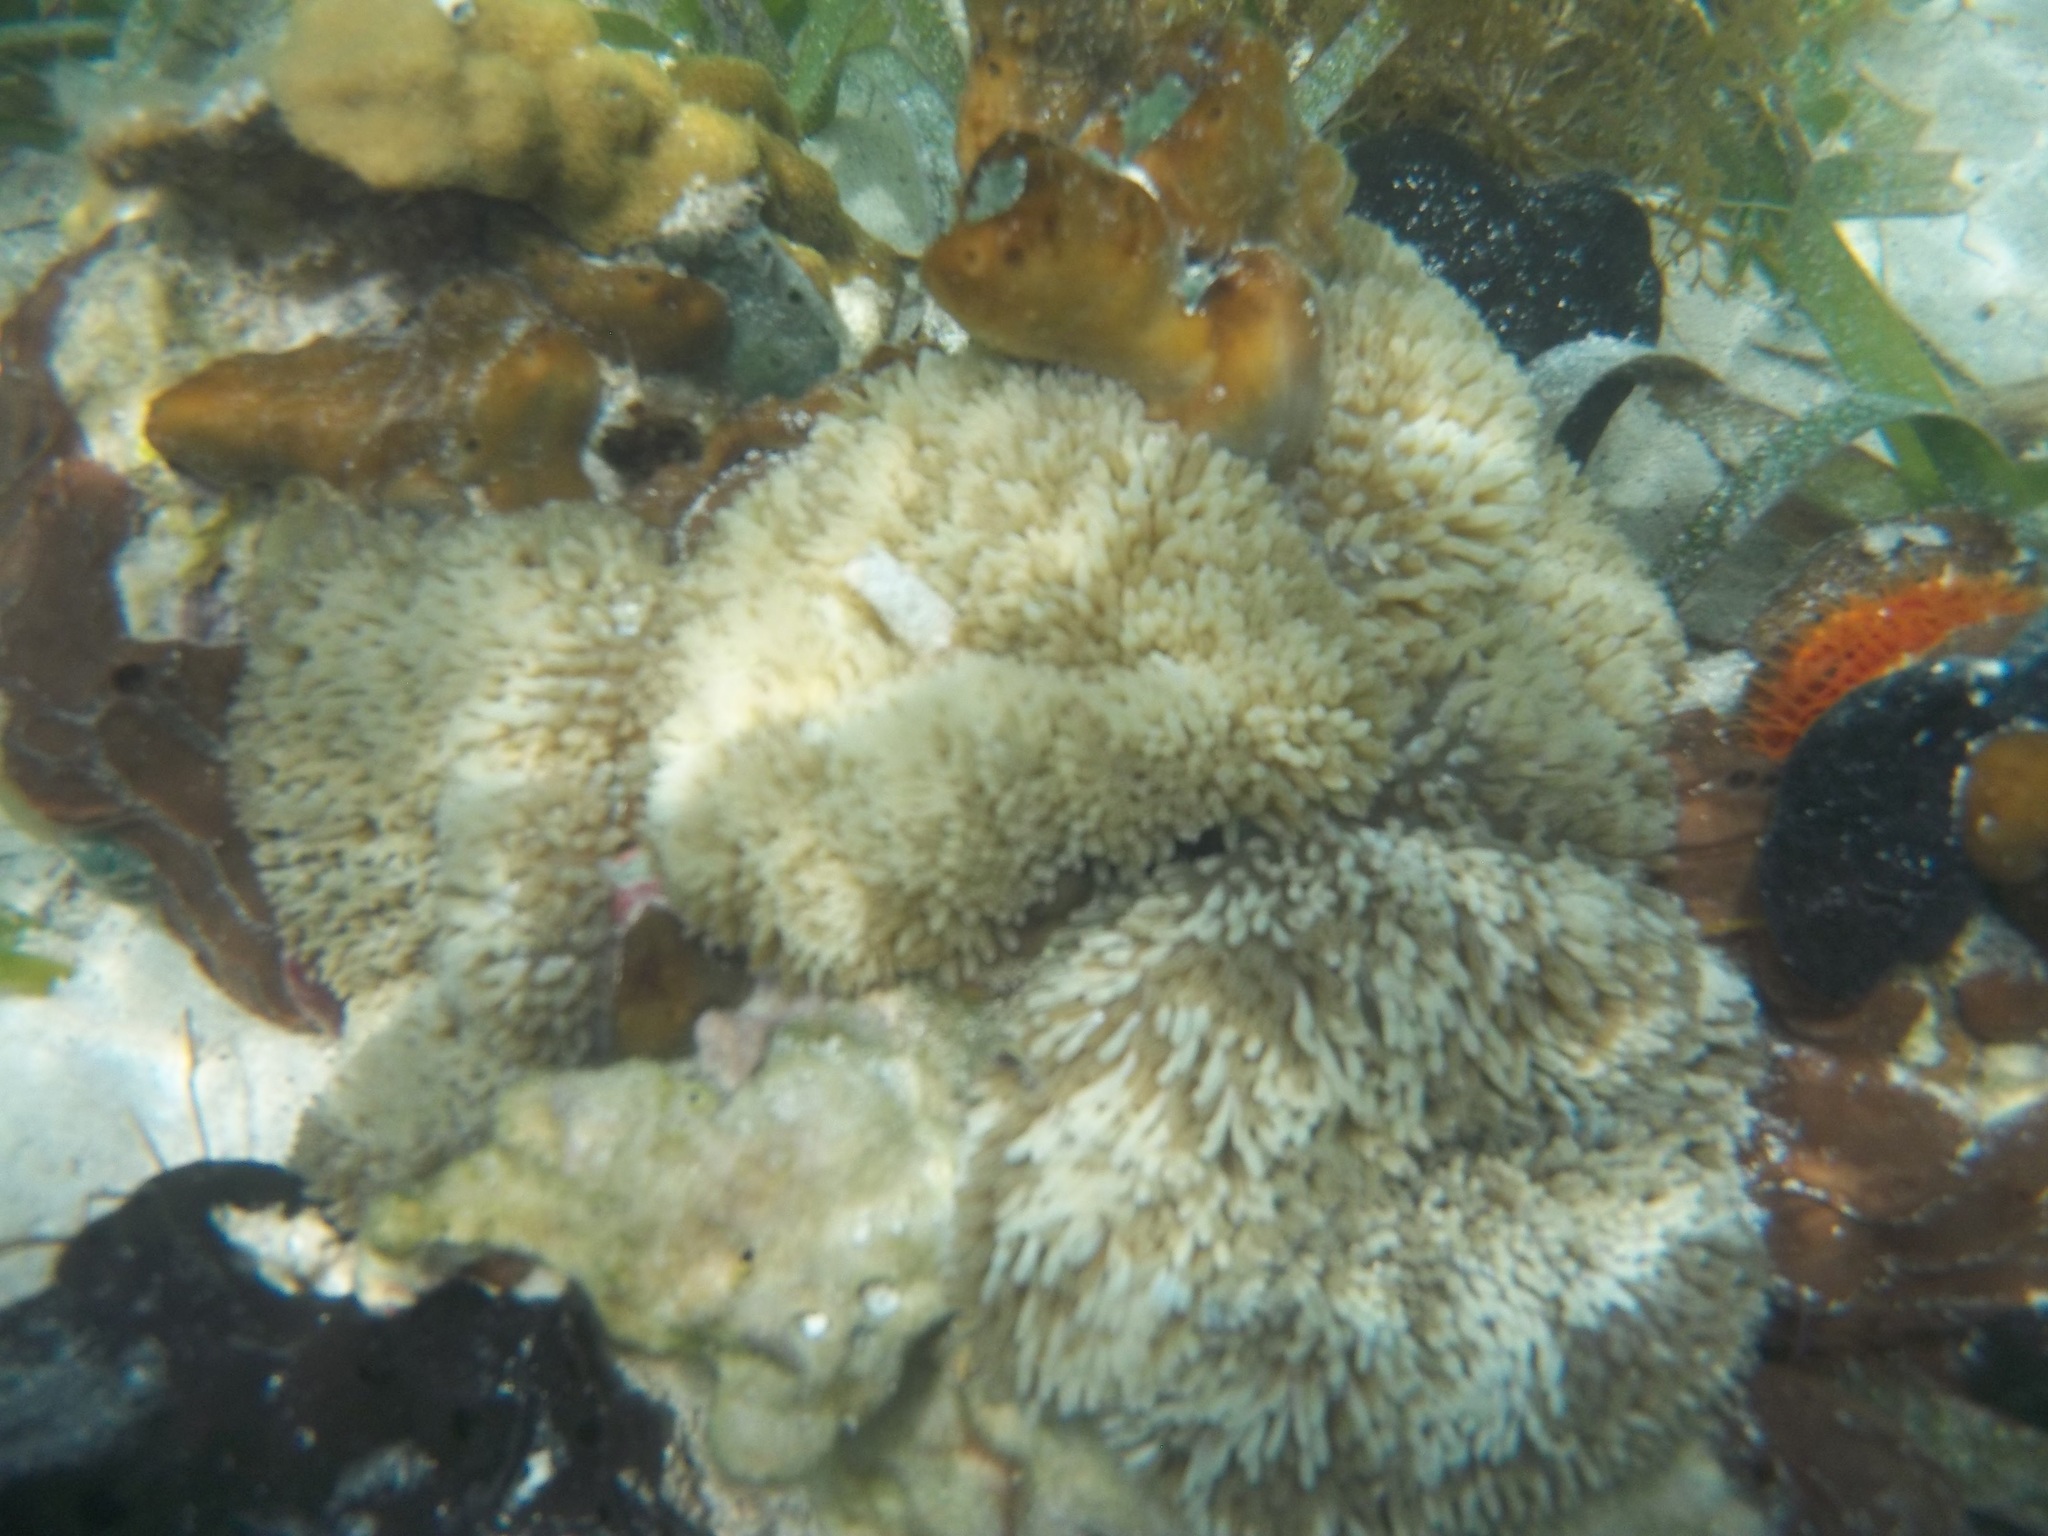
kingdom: Animalia
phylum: Cnidaria
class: Anthozoa
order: Actiniaria
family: Stichodactylidae
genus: Stichodactyla
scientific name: Stichodactyla helianthus
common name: Sun anemone
